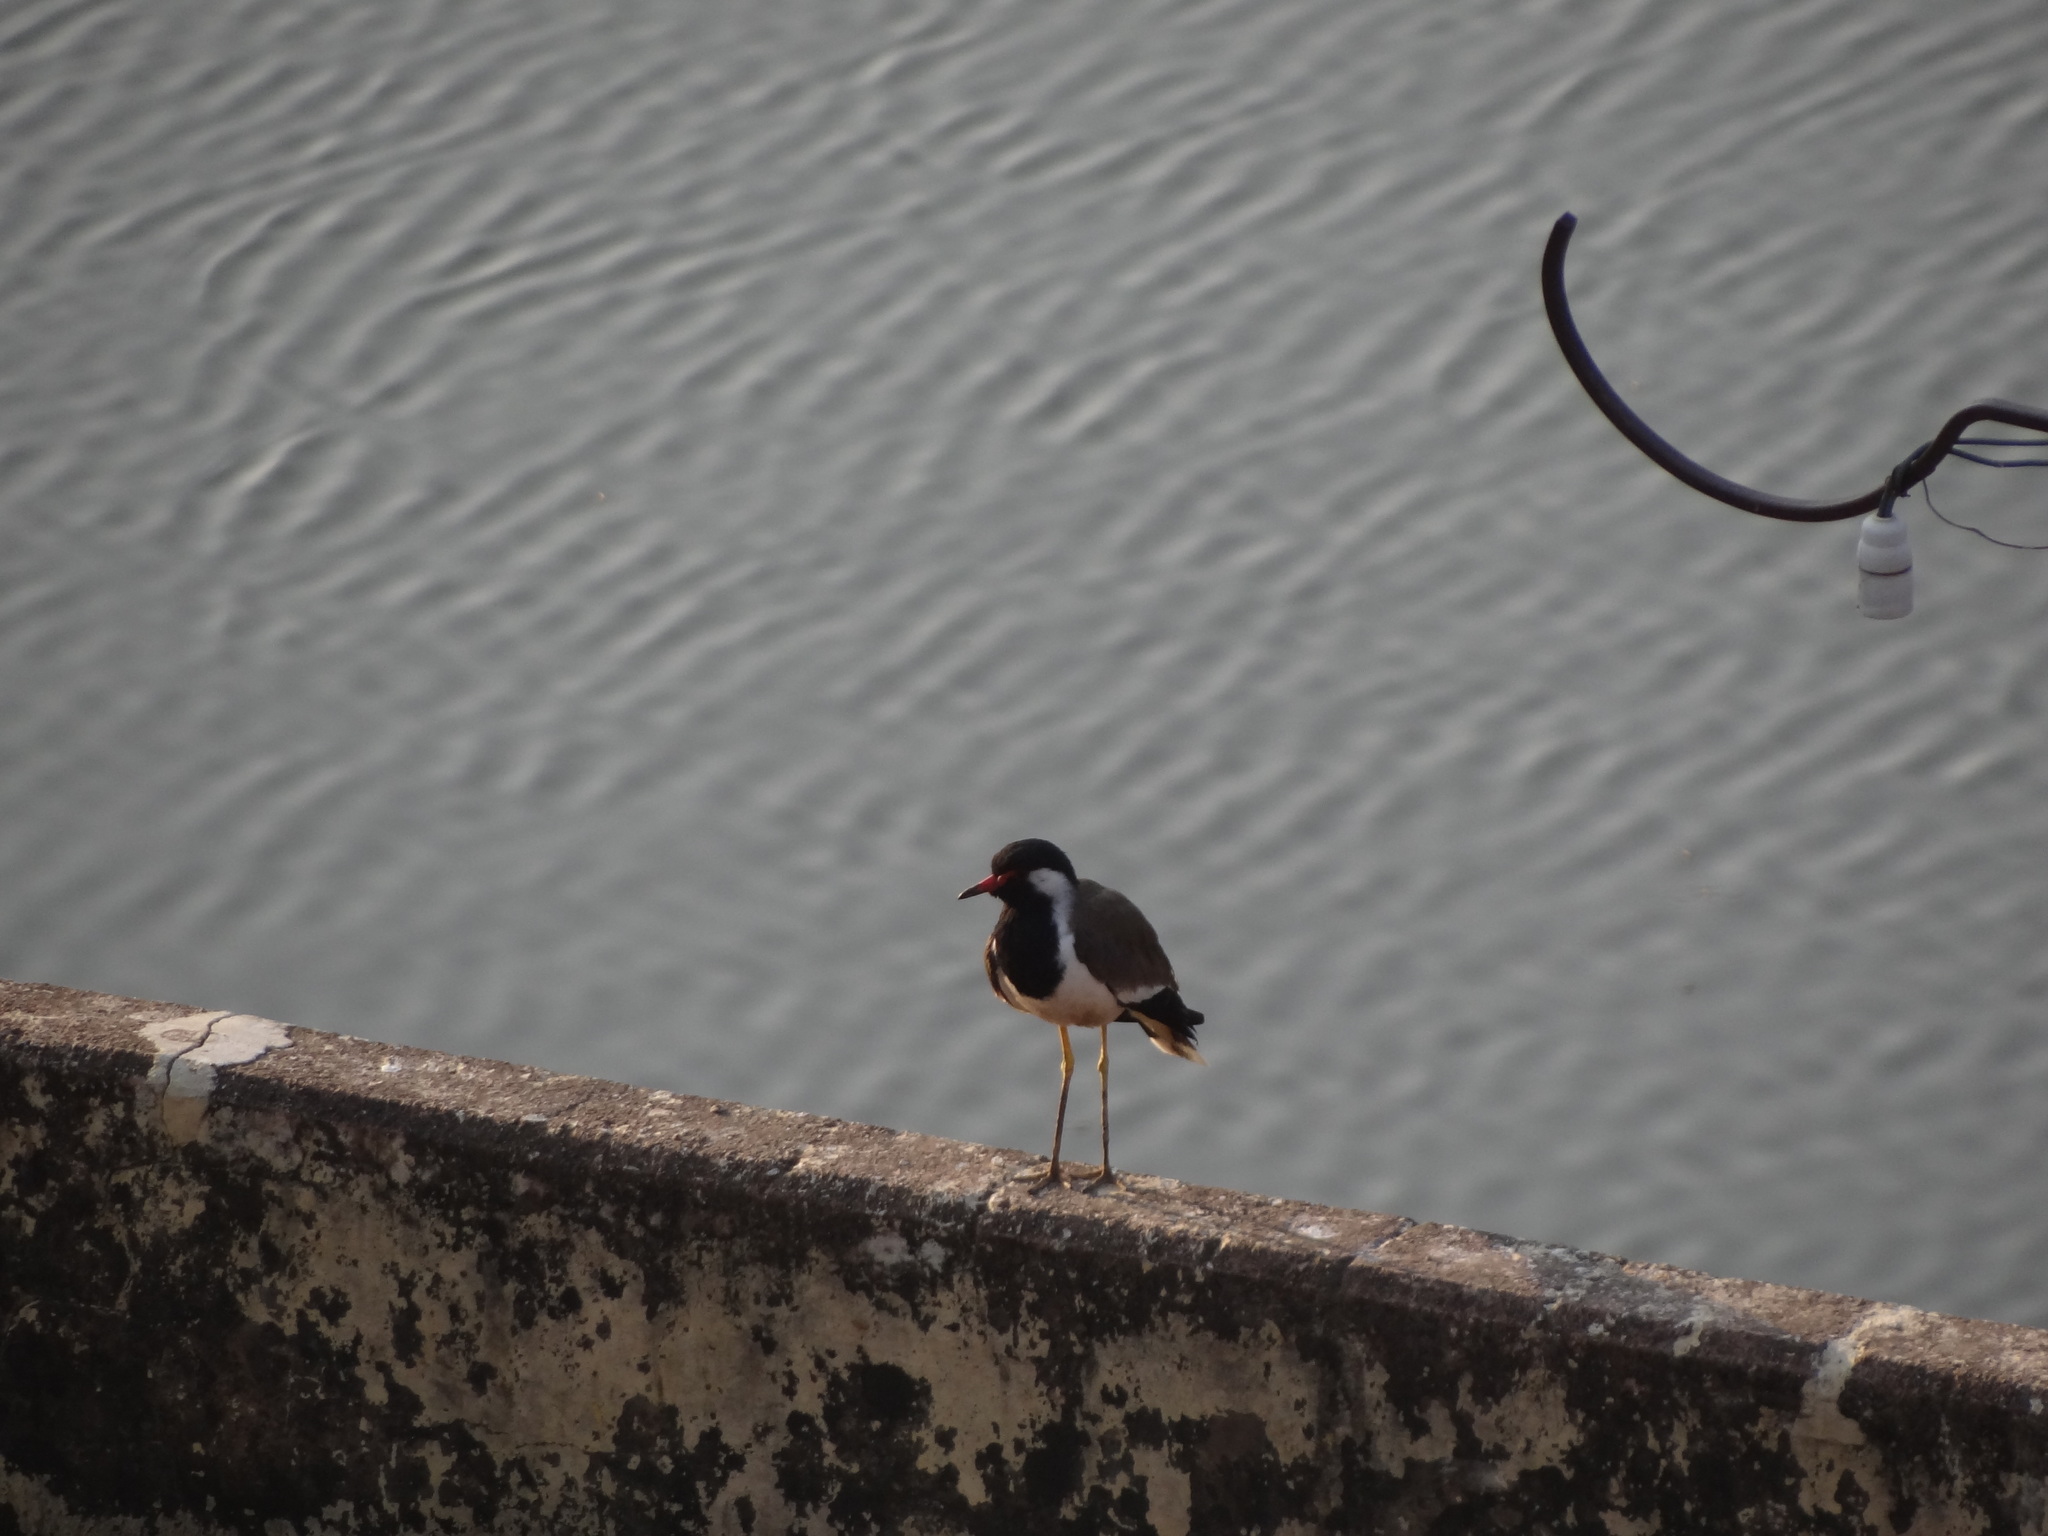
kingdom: Animalia
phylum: Chordata
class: Aves
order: Charadriiformes
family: Charadriidae
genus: Vanellus
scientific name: Vanellus indicus
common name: Red-wattled lapwing
